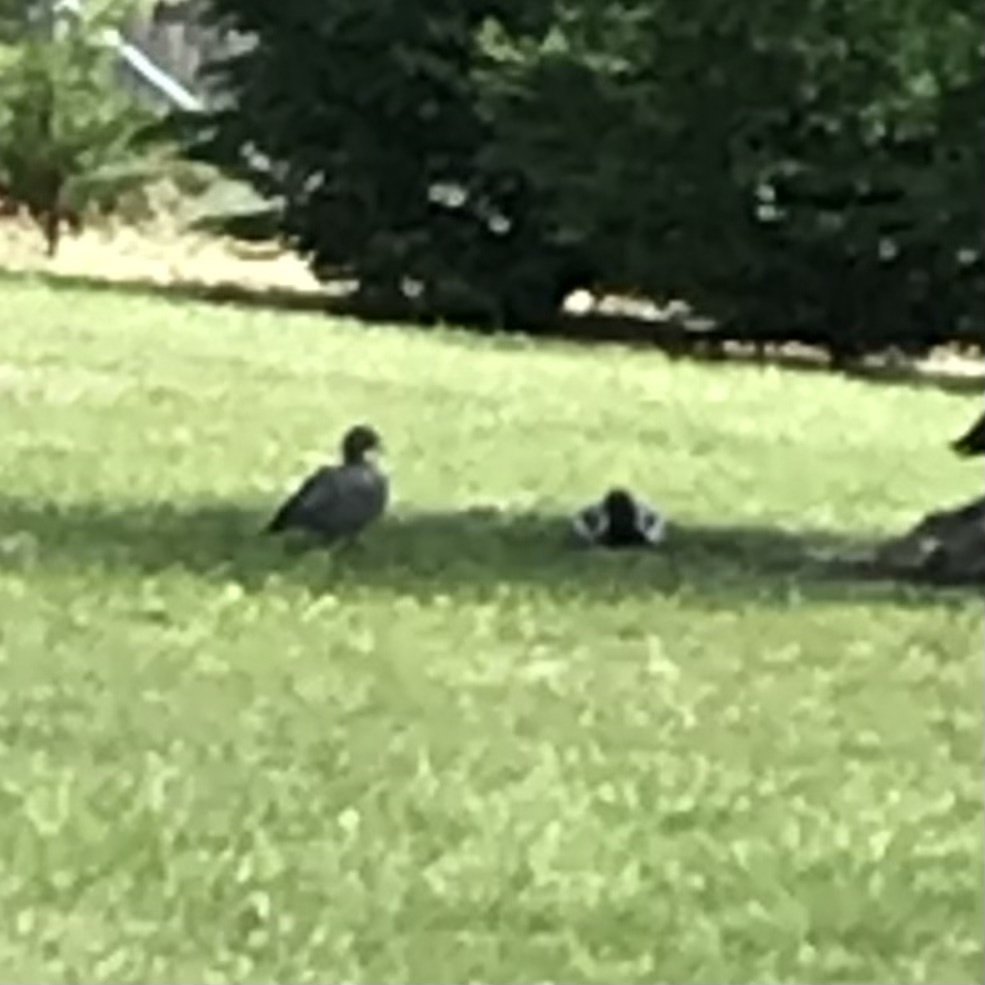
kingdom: Animalia
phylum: Chordata
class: Aves
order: Anseriformes
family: Anatidae
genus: Chenonetta
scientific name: Chenonetta jubata
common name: Maned duck
